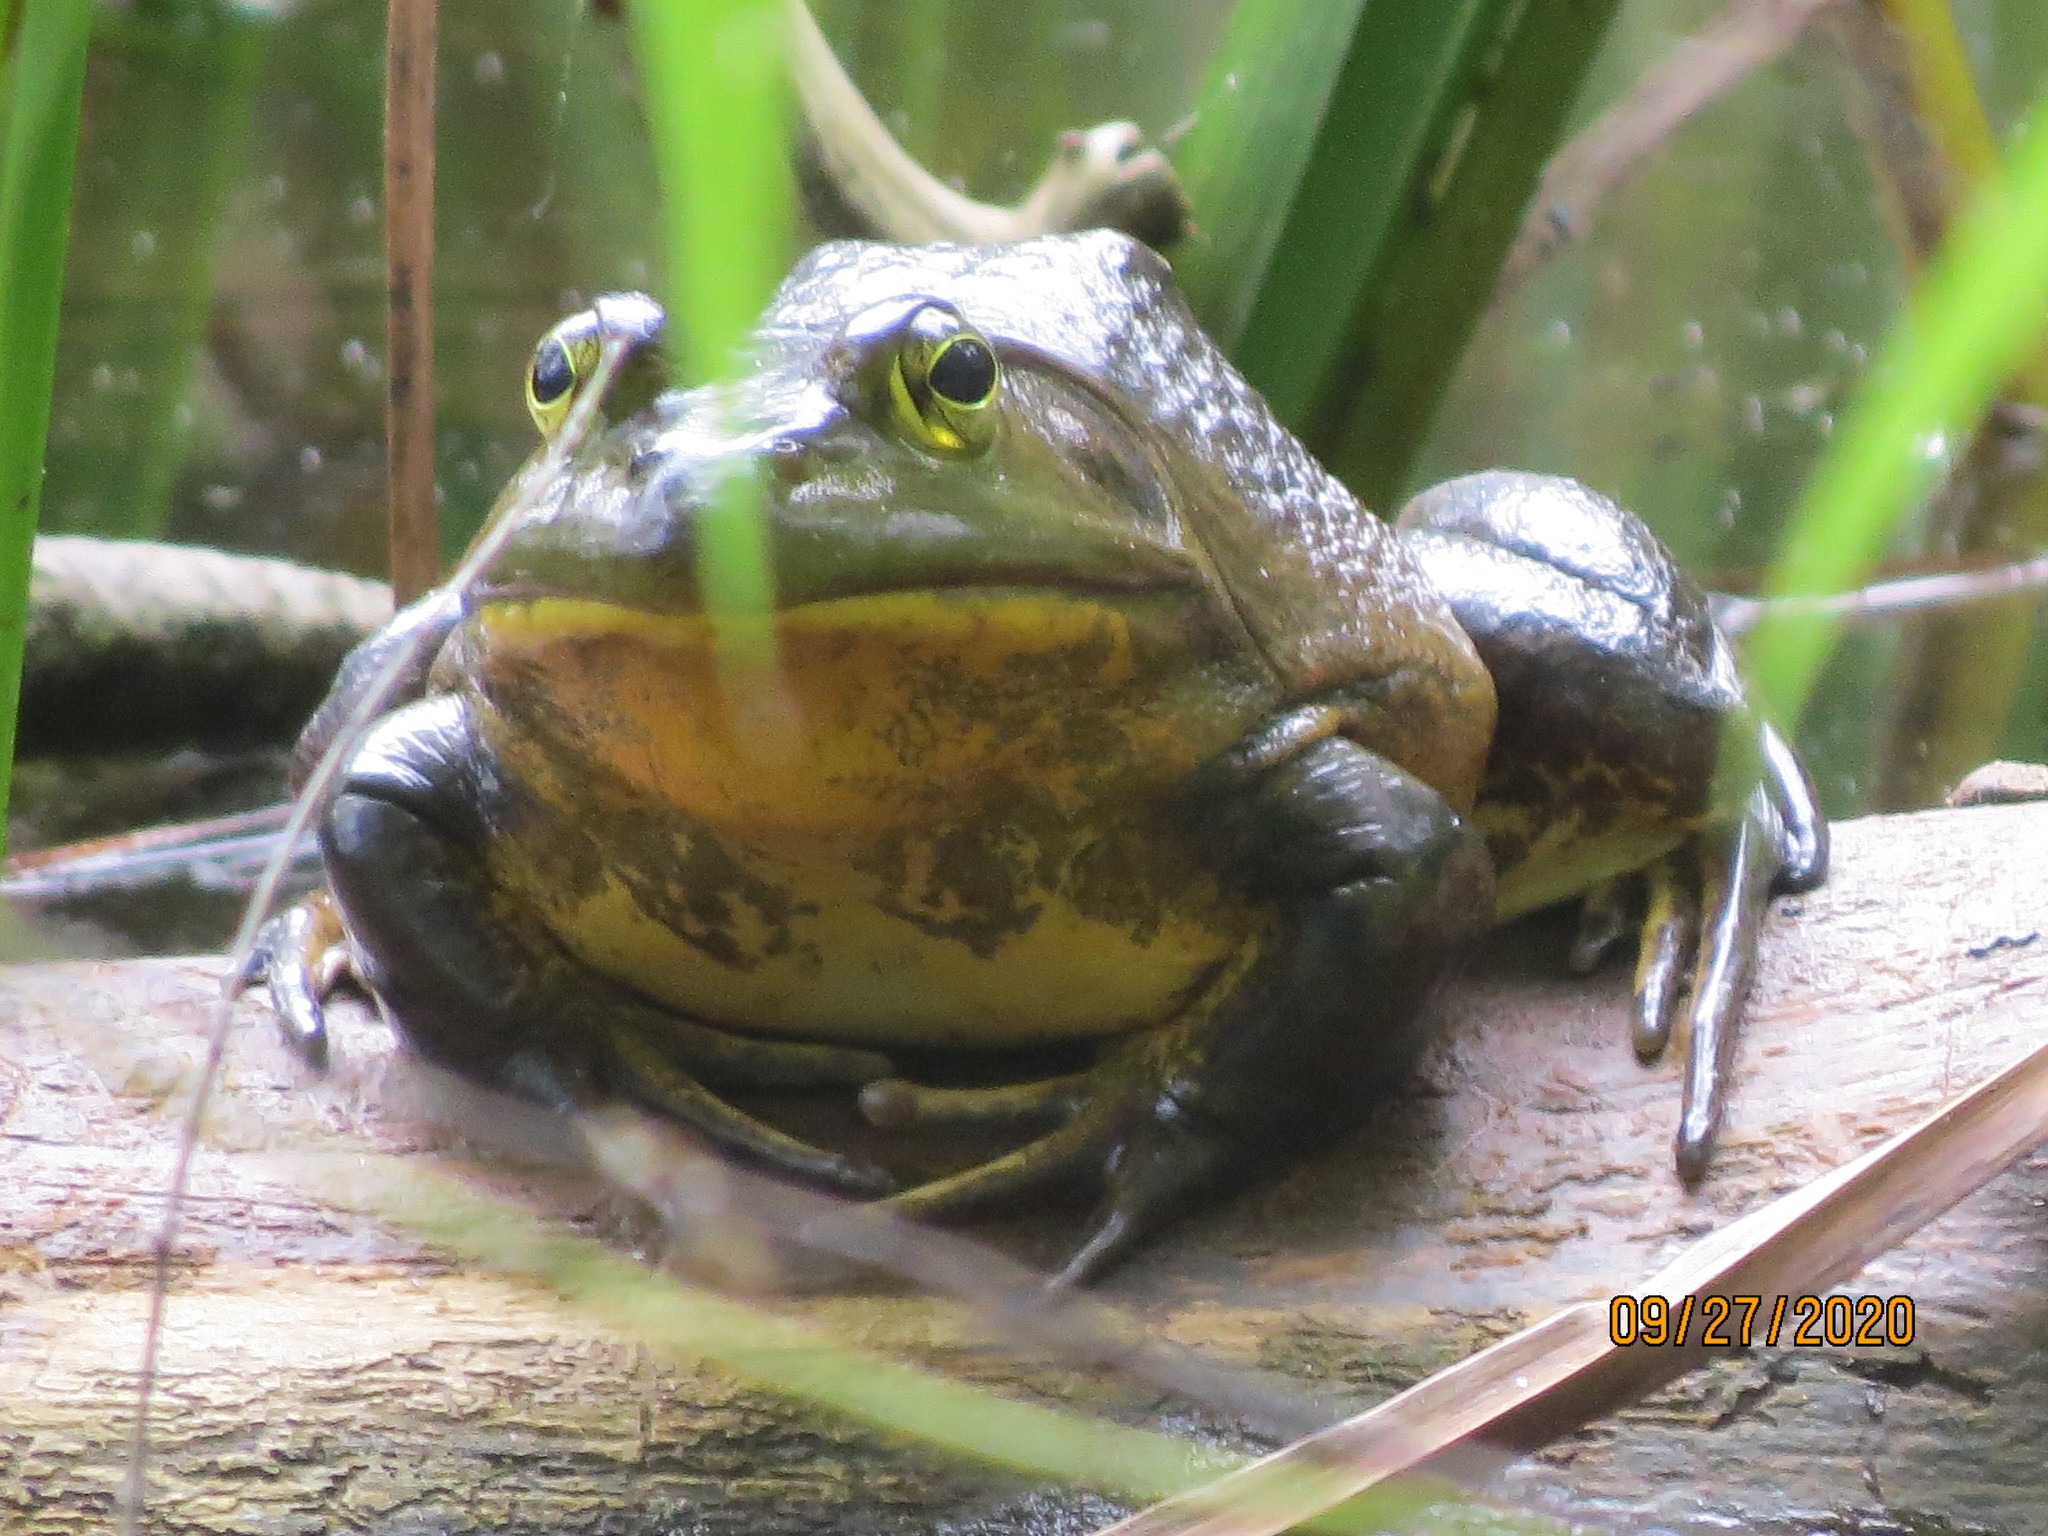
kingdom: Animalia
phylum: Chordata
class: Amphibia
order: Anura
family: Ranidae
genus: Lithobates
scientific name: Lithobates catesbeianus
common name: American bullfrog
